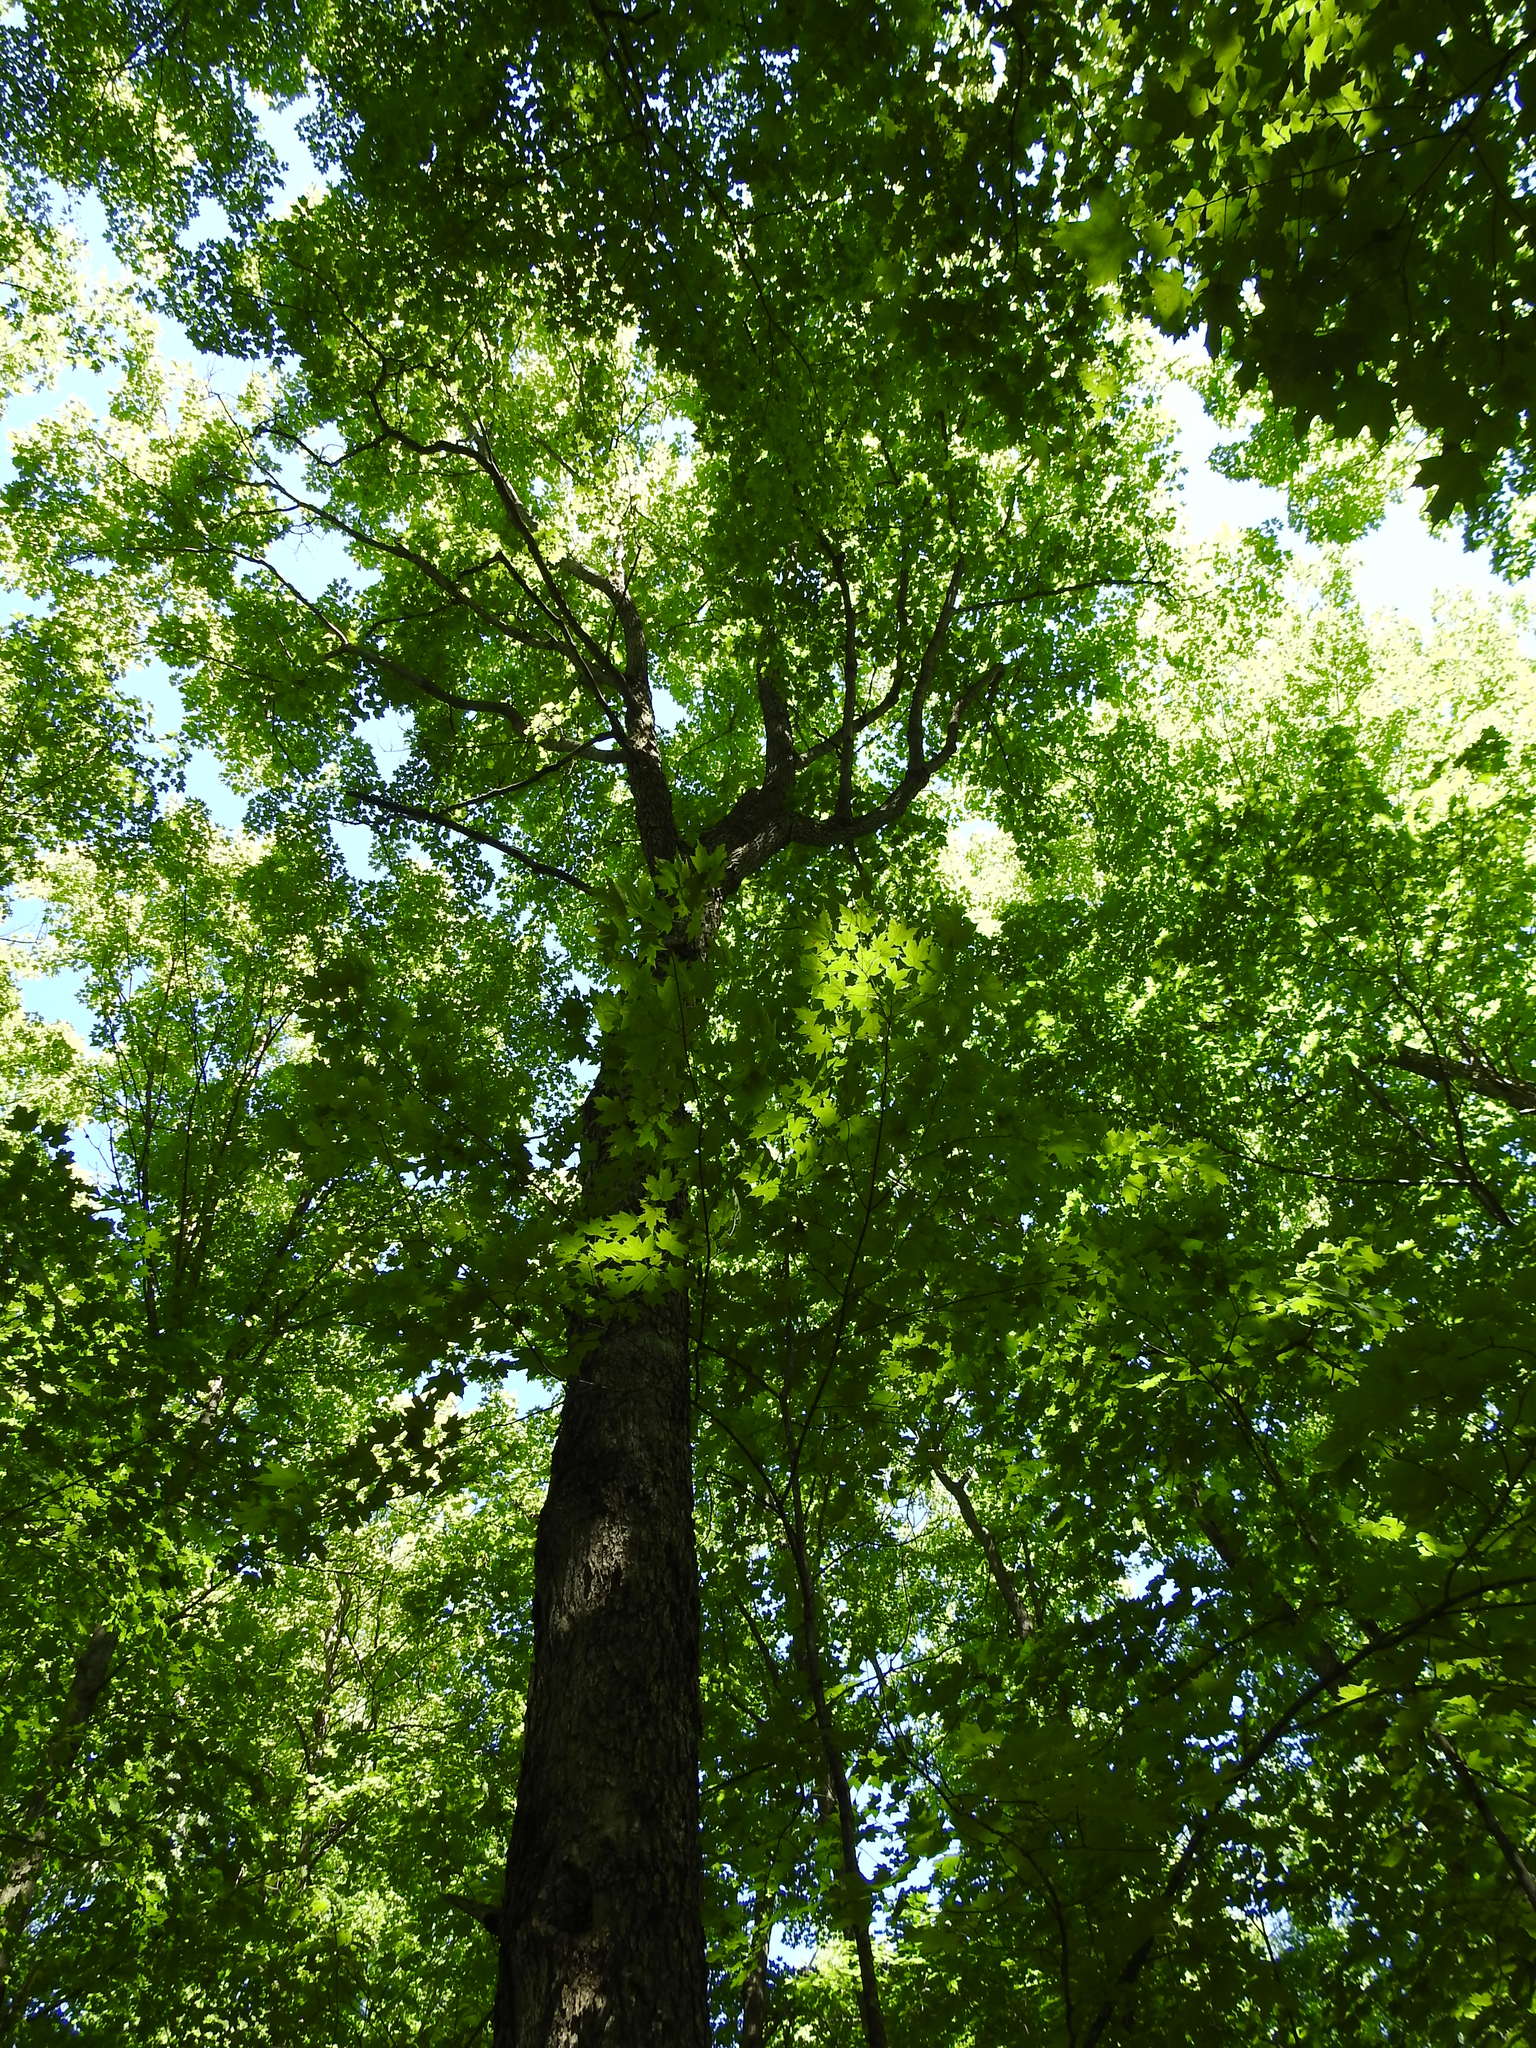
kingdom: Plantae
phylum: Tracheophyta
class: Magnoliopsida
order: Sapindales
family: Sapindaceae
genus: Acer
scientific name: Acer saccharum
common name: Sugar maple
